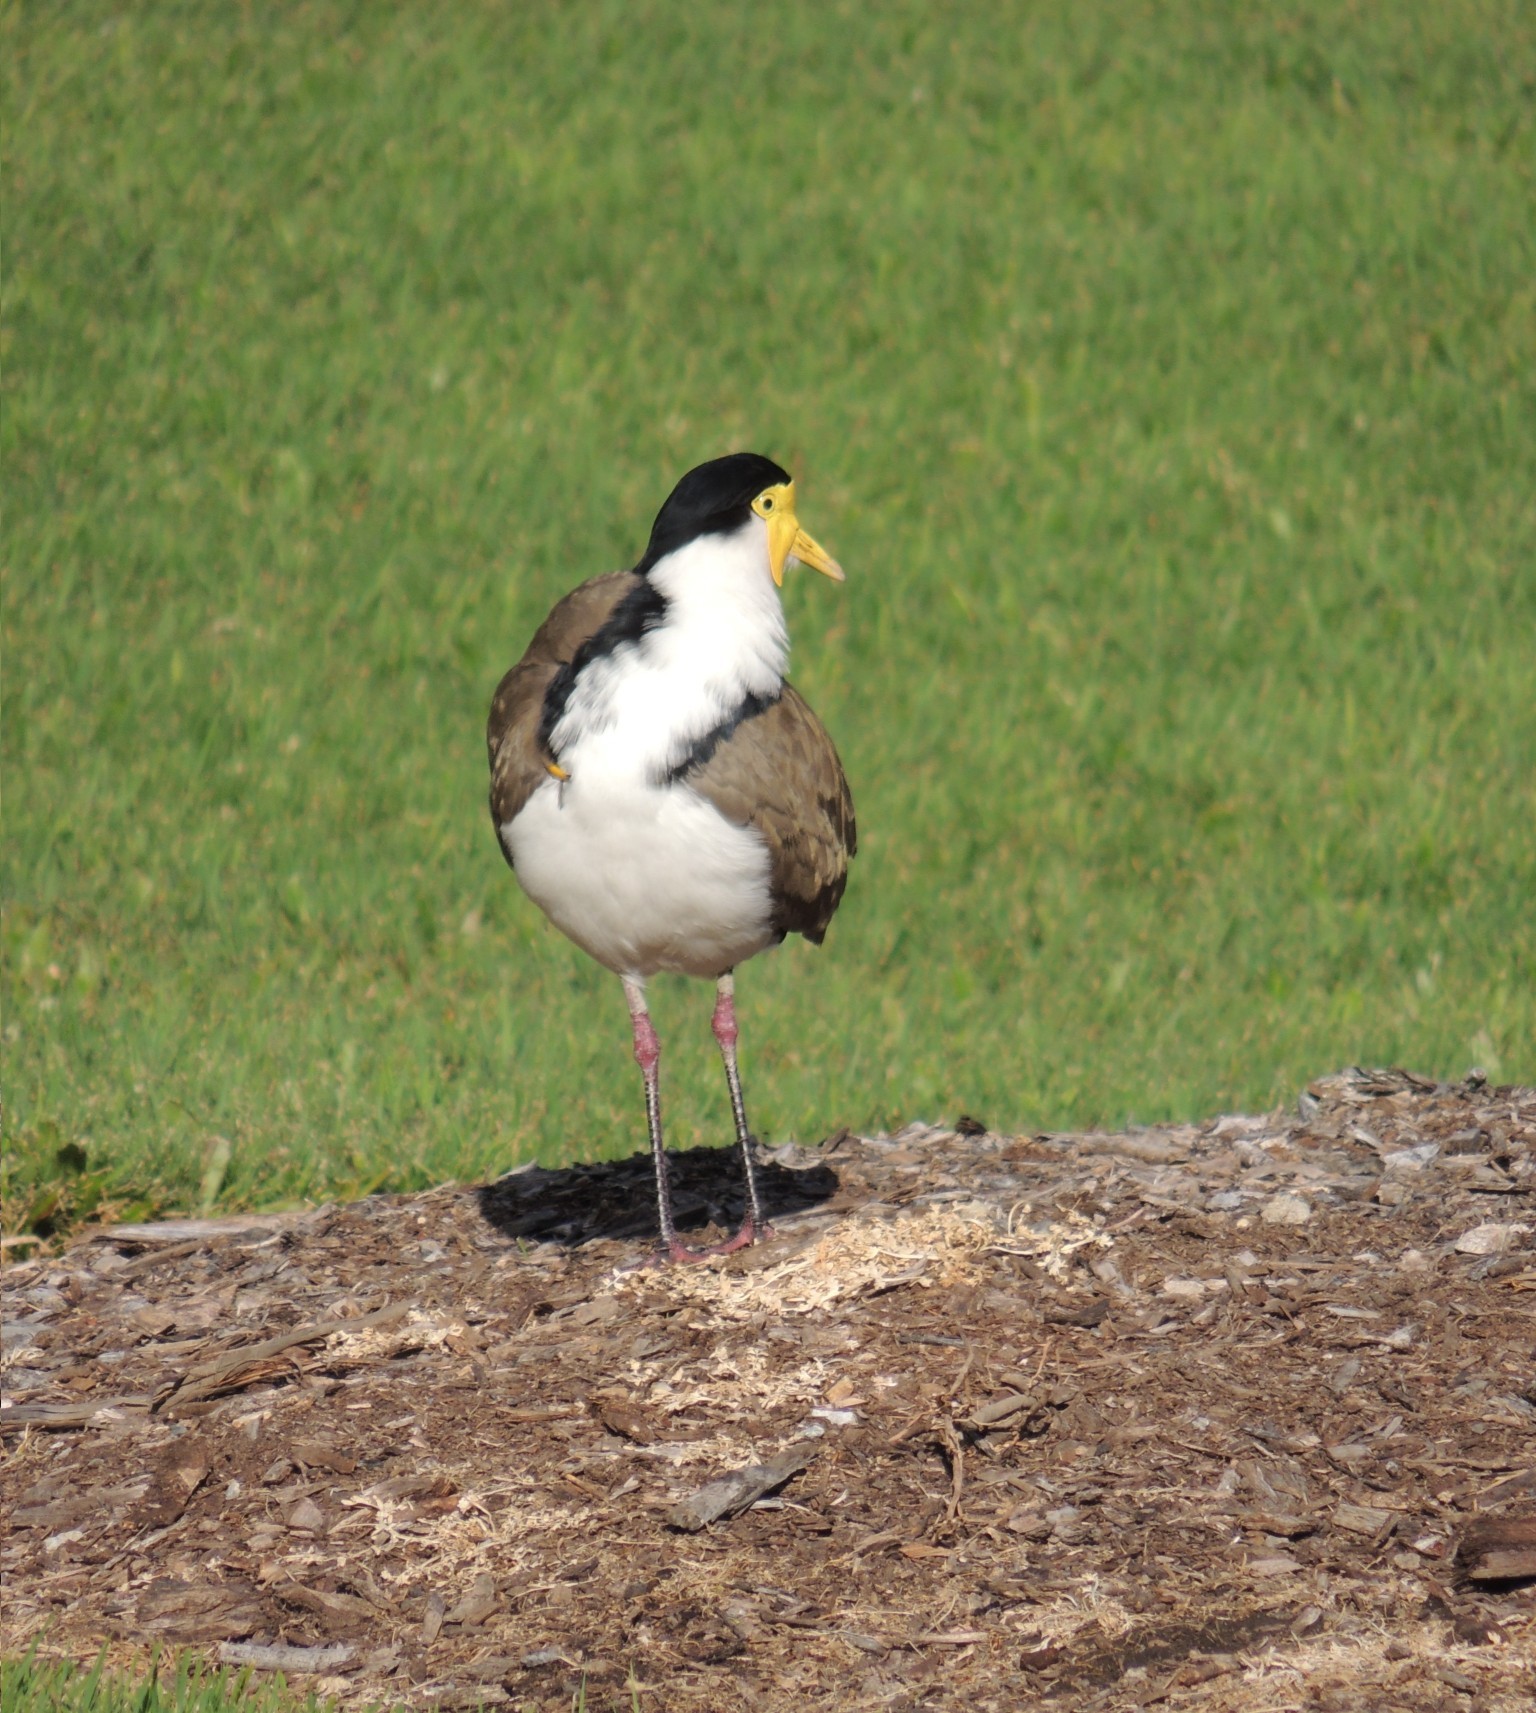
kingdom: Animalia
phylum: Chordata
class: Aves
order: Charadriiformes
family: Charadriidae
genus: Vanellus
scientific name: Vanellus miles
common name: Masked lapwing
